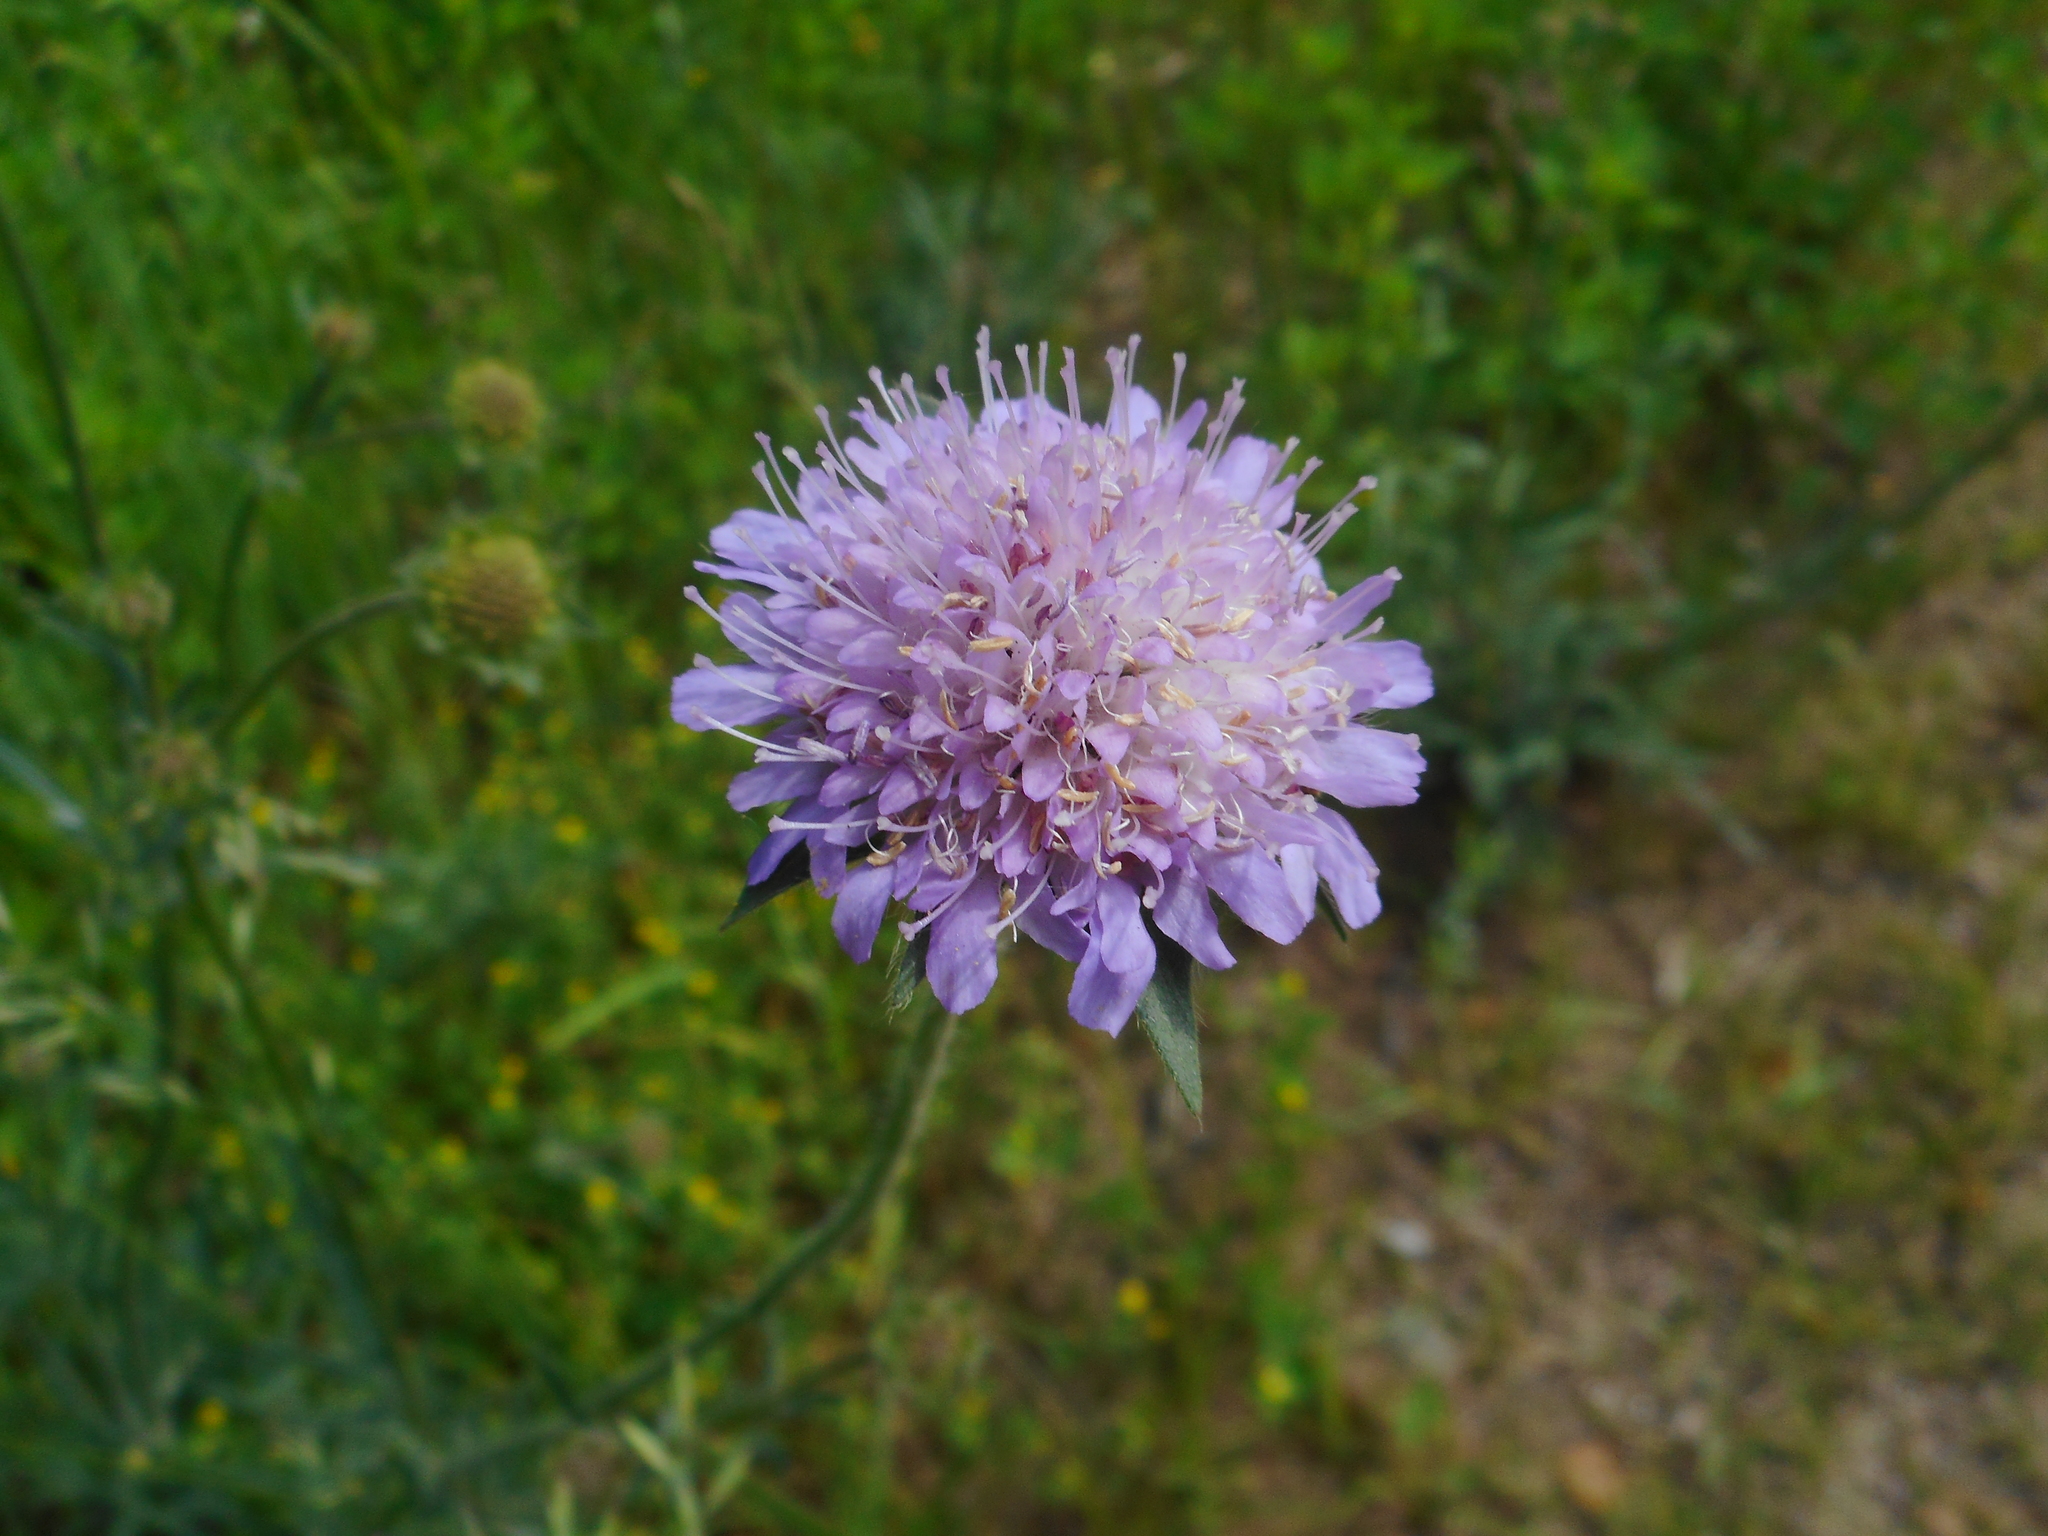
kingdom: Plantae
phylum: Tracheophyta
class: Magnoliopsida
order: Dipsacales
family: Caprifoliaceae
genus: Knautia
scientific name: Knautia arvensis
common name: Field scabiosa
